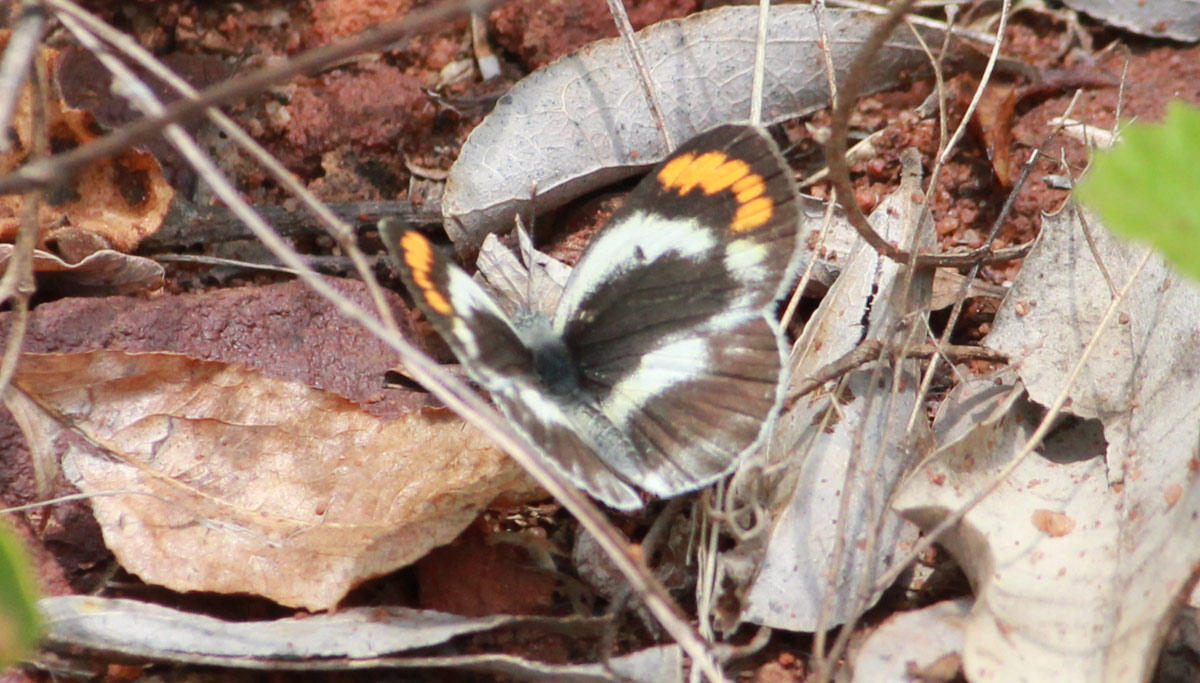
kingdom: Animalia
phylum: Arthropoda
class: Insecta
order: Lepidoptera
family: Pieridae
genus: Colotis
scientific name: Colotis euippe
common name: Round-winged orange tip
